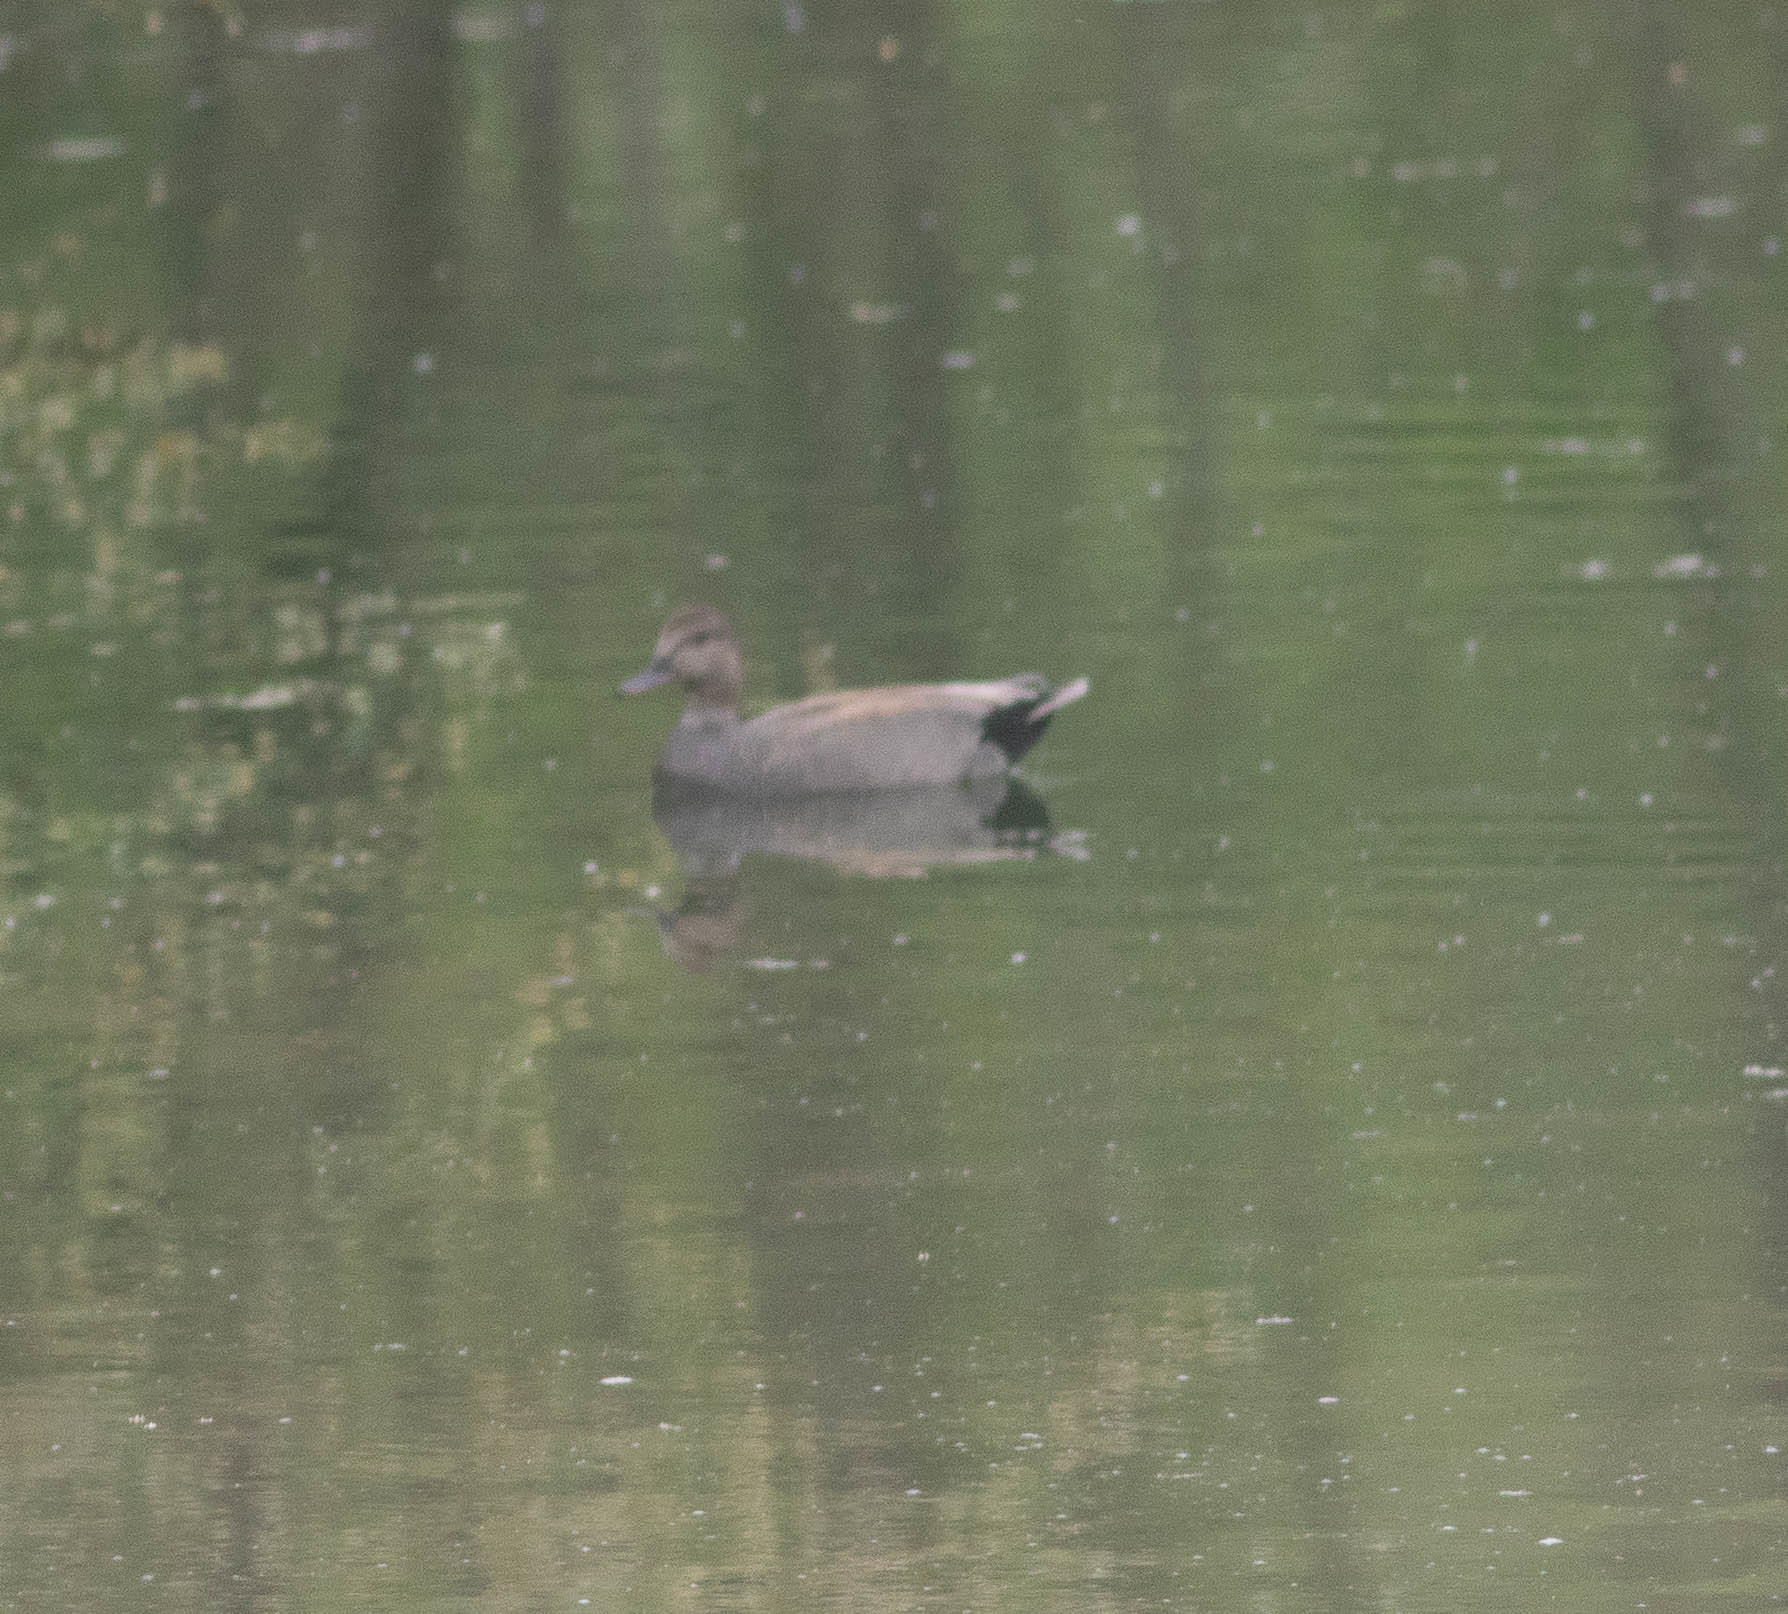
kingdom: Animalia
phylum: Chordata
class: Aves
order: Anseriformes
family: Anatidae
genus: Mareca
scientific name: Mareca strepera
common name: Gadwall
